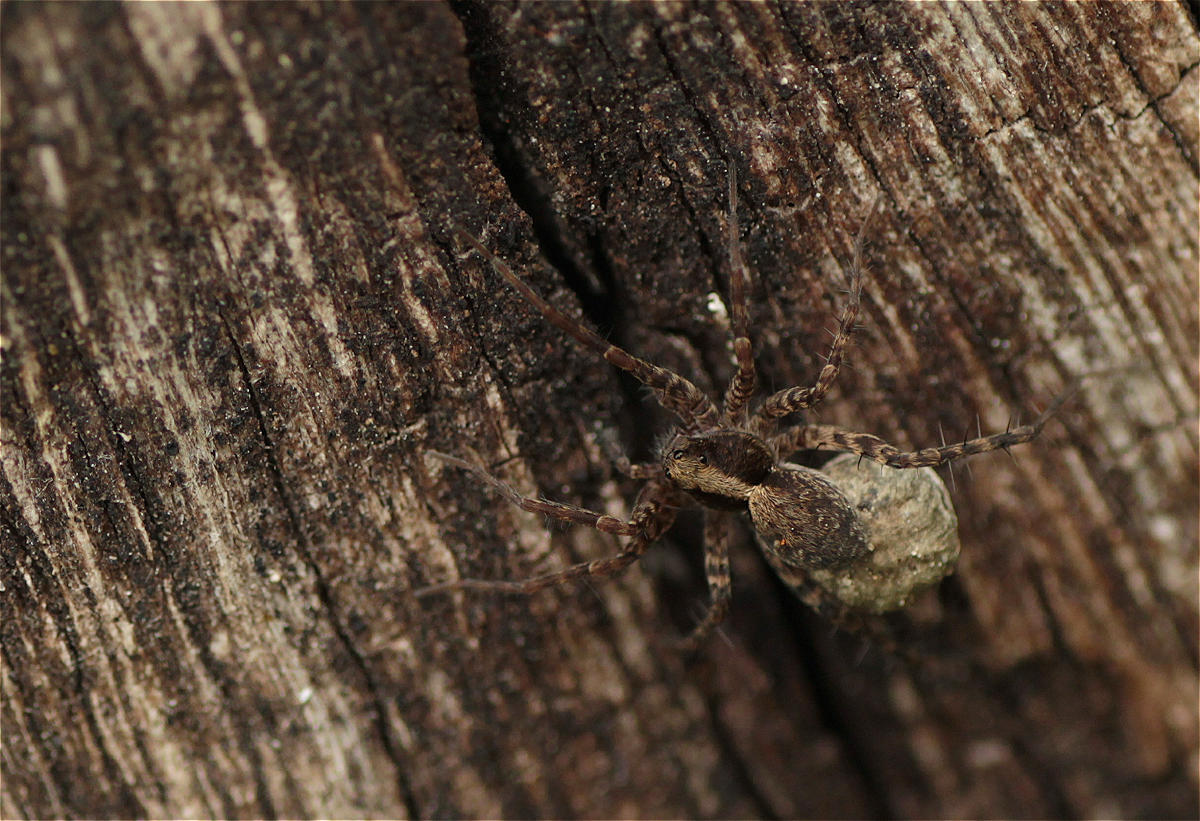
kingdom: Animalia
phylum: Arthropoda
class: Arachnida
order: Araneae
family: Lycosidae
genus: Pardosa
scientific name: Pardosa
